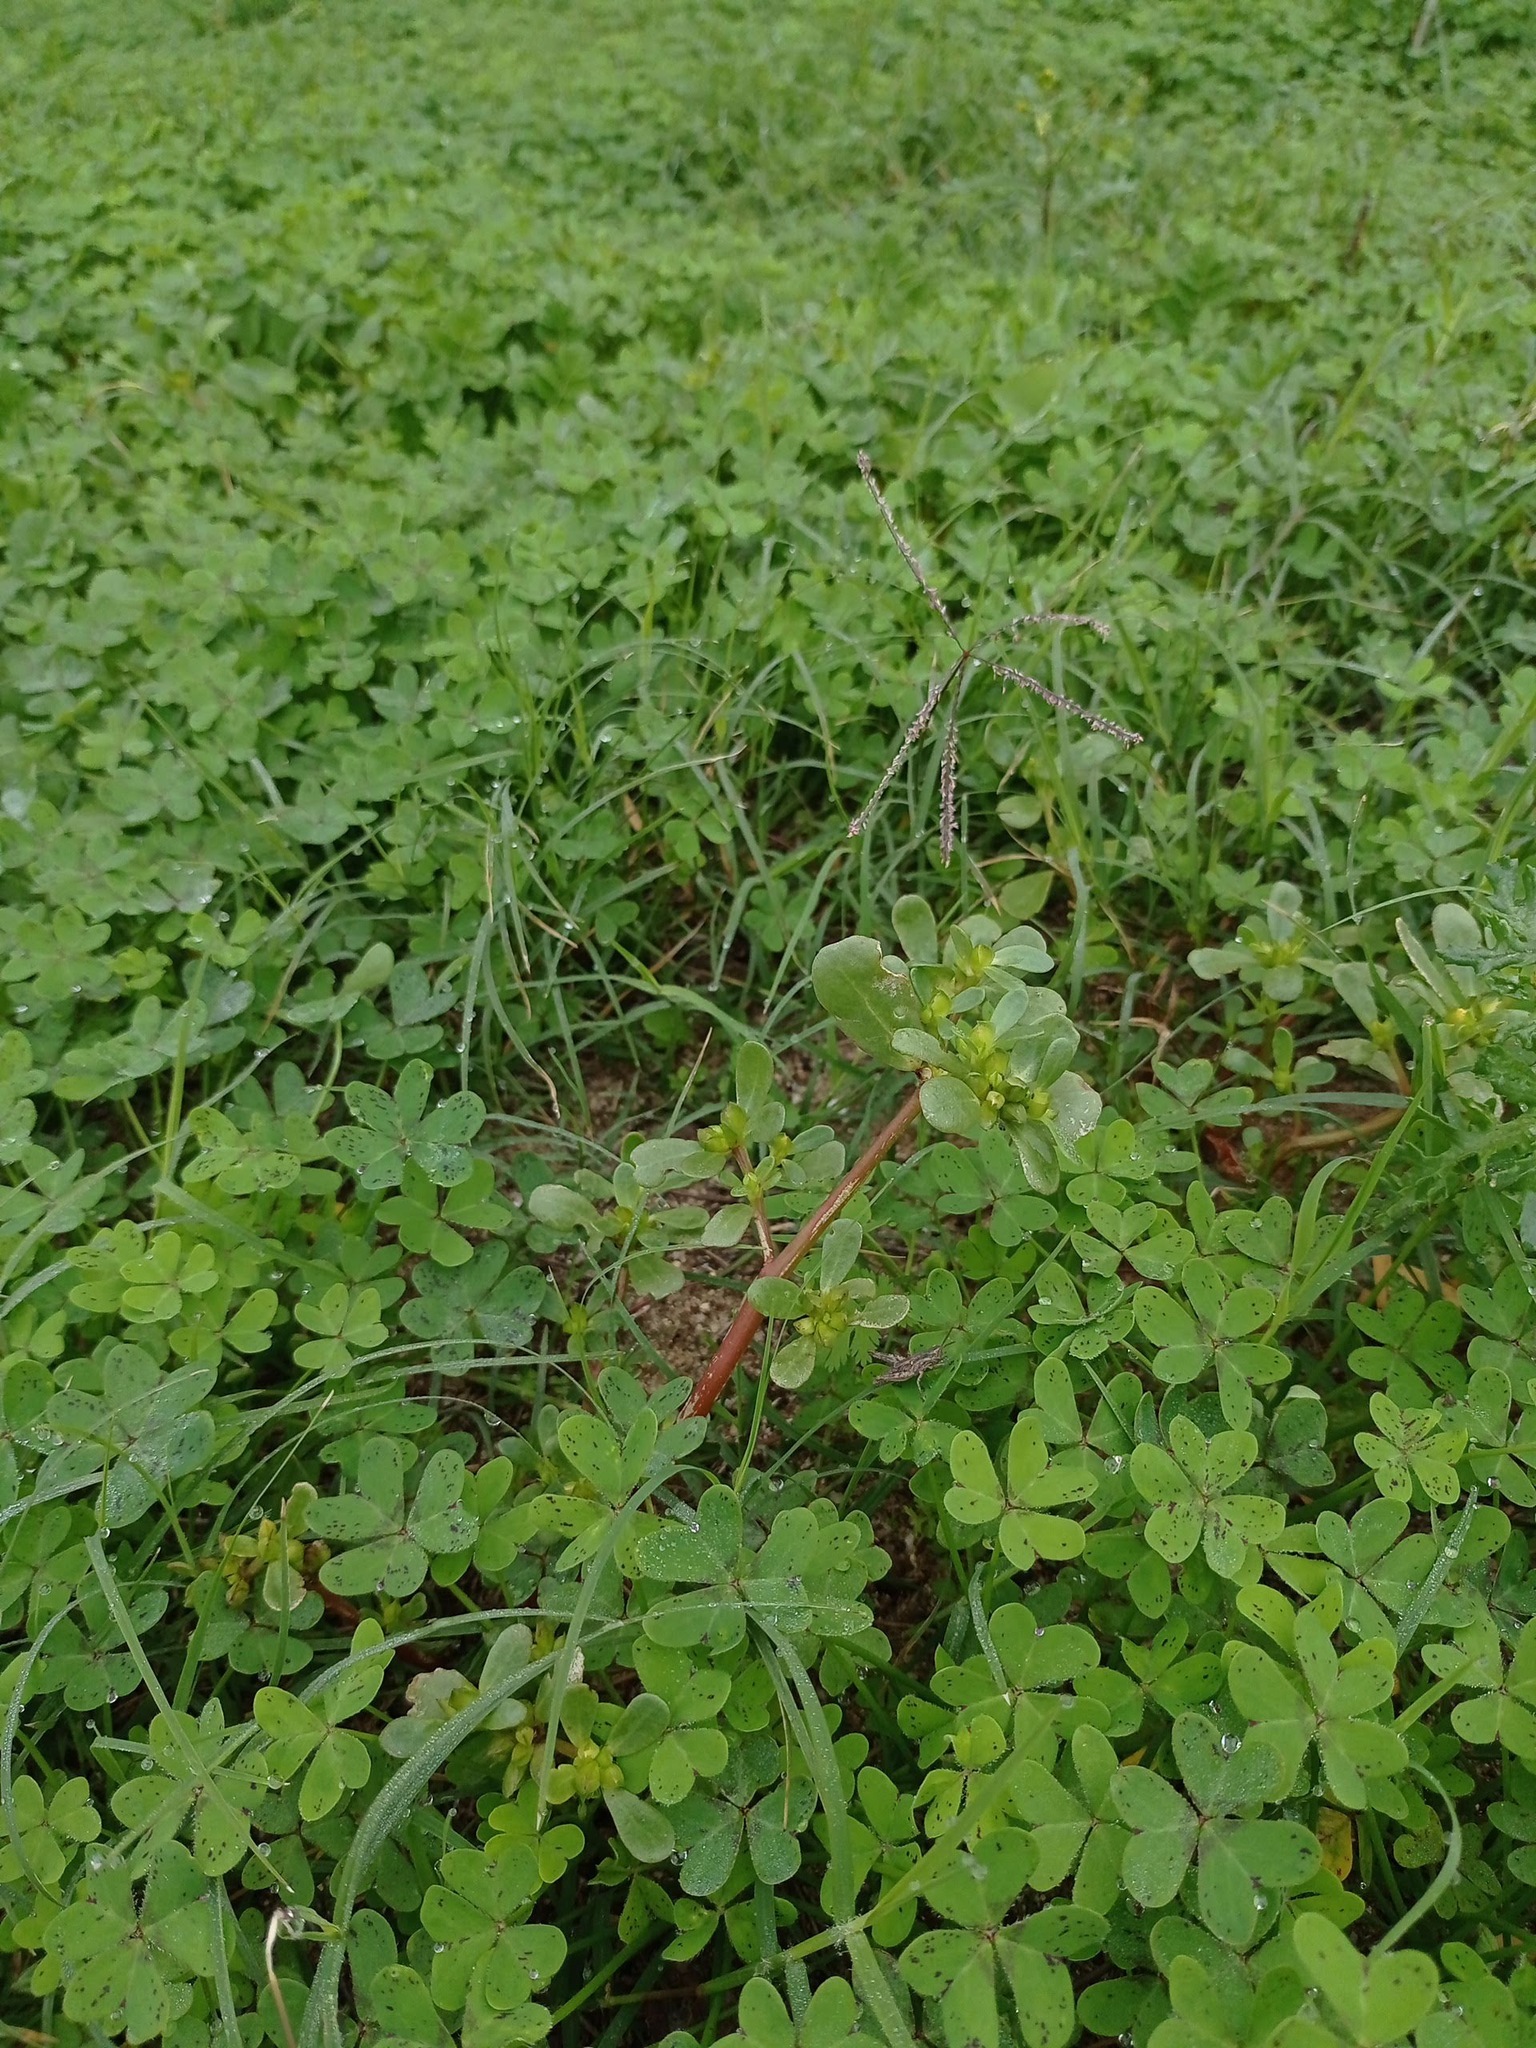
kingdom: Plantae
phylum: Tracheophyta
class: Magnoliopsida
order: Caryophyllales
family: Portulacaceae
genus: Portulaca
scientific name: Portulaca oleracea
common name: Common purslane
